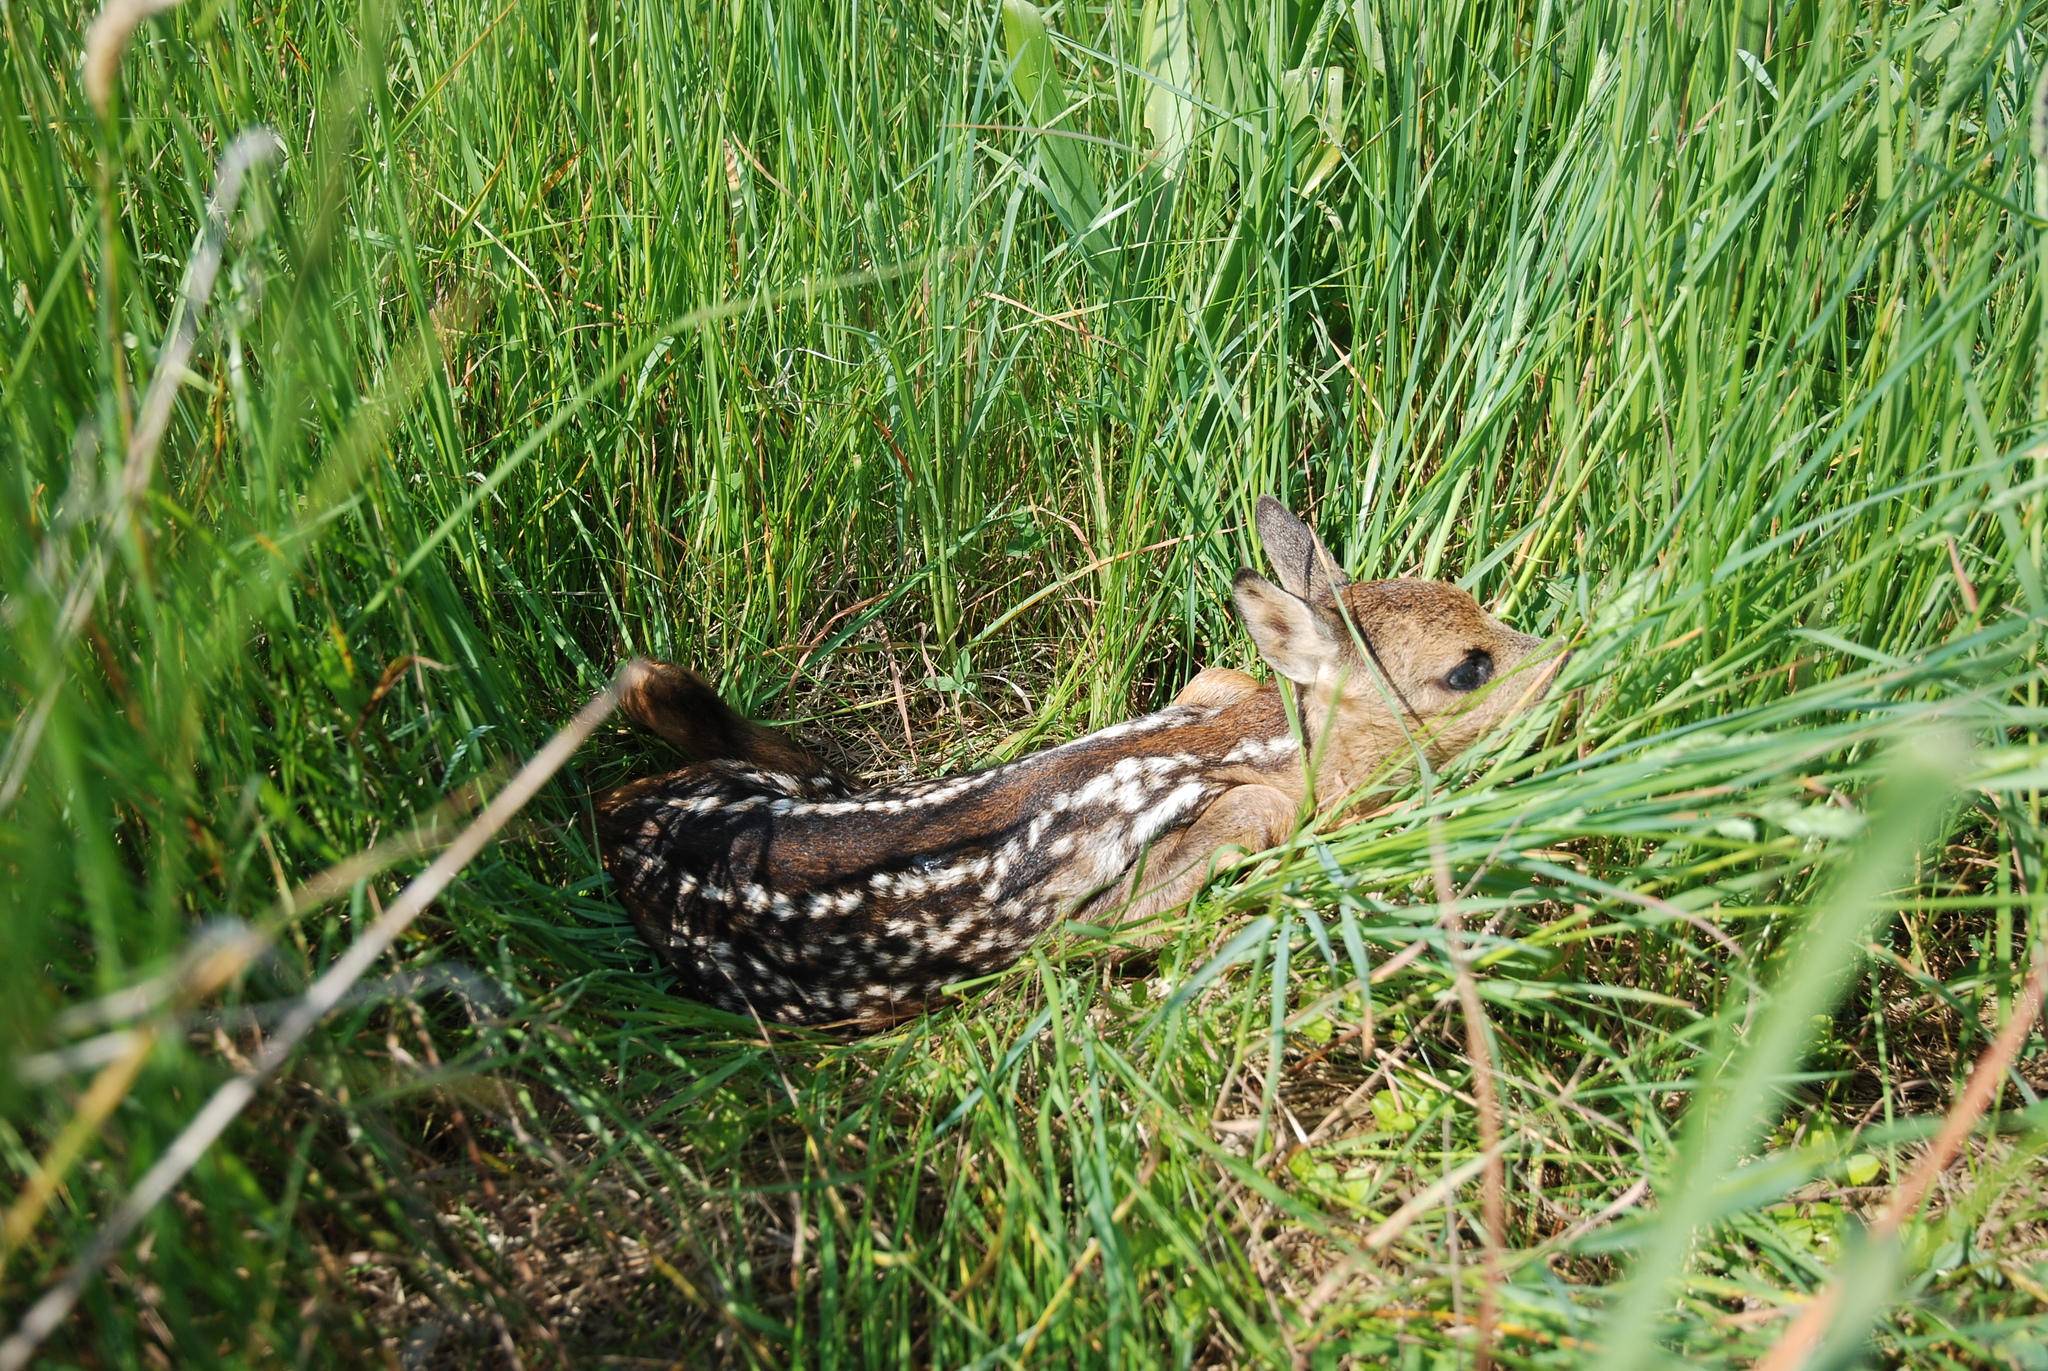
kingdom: Animalia
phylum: Chordata
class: Mammalia
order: Artiodactyla
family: Cervidae
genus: Capreolus
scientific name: Capreolus capreolus
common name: Western roe deer
